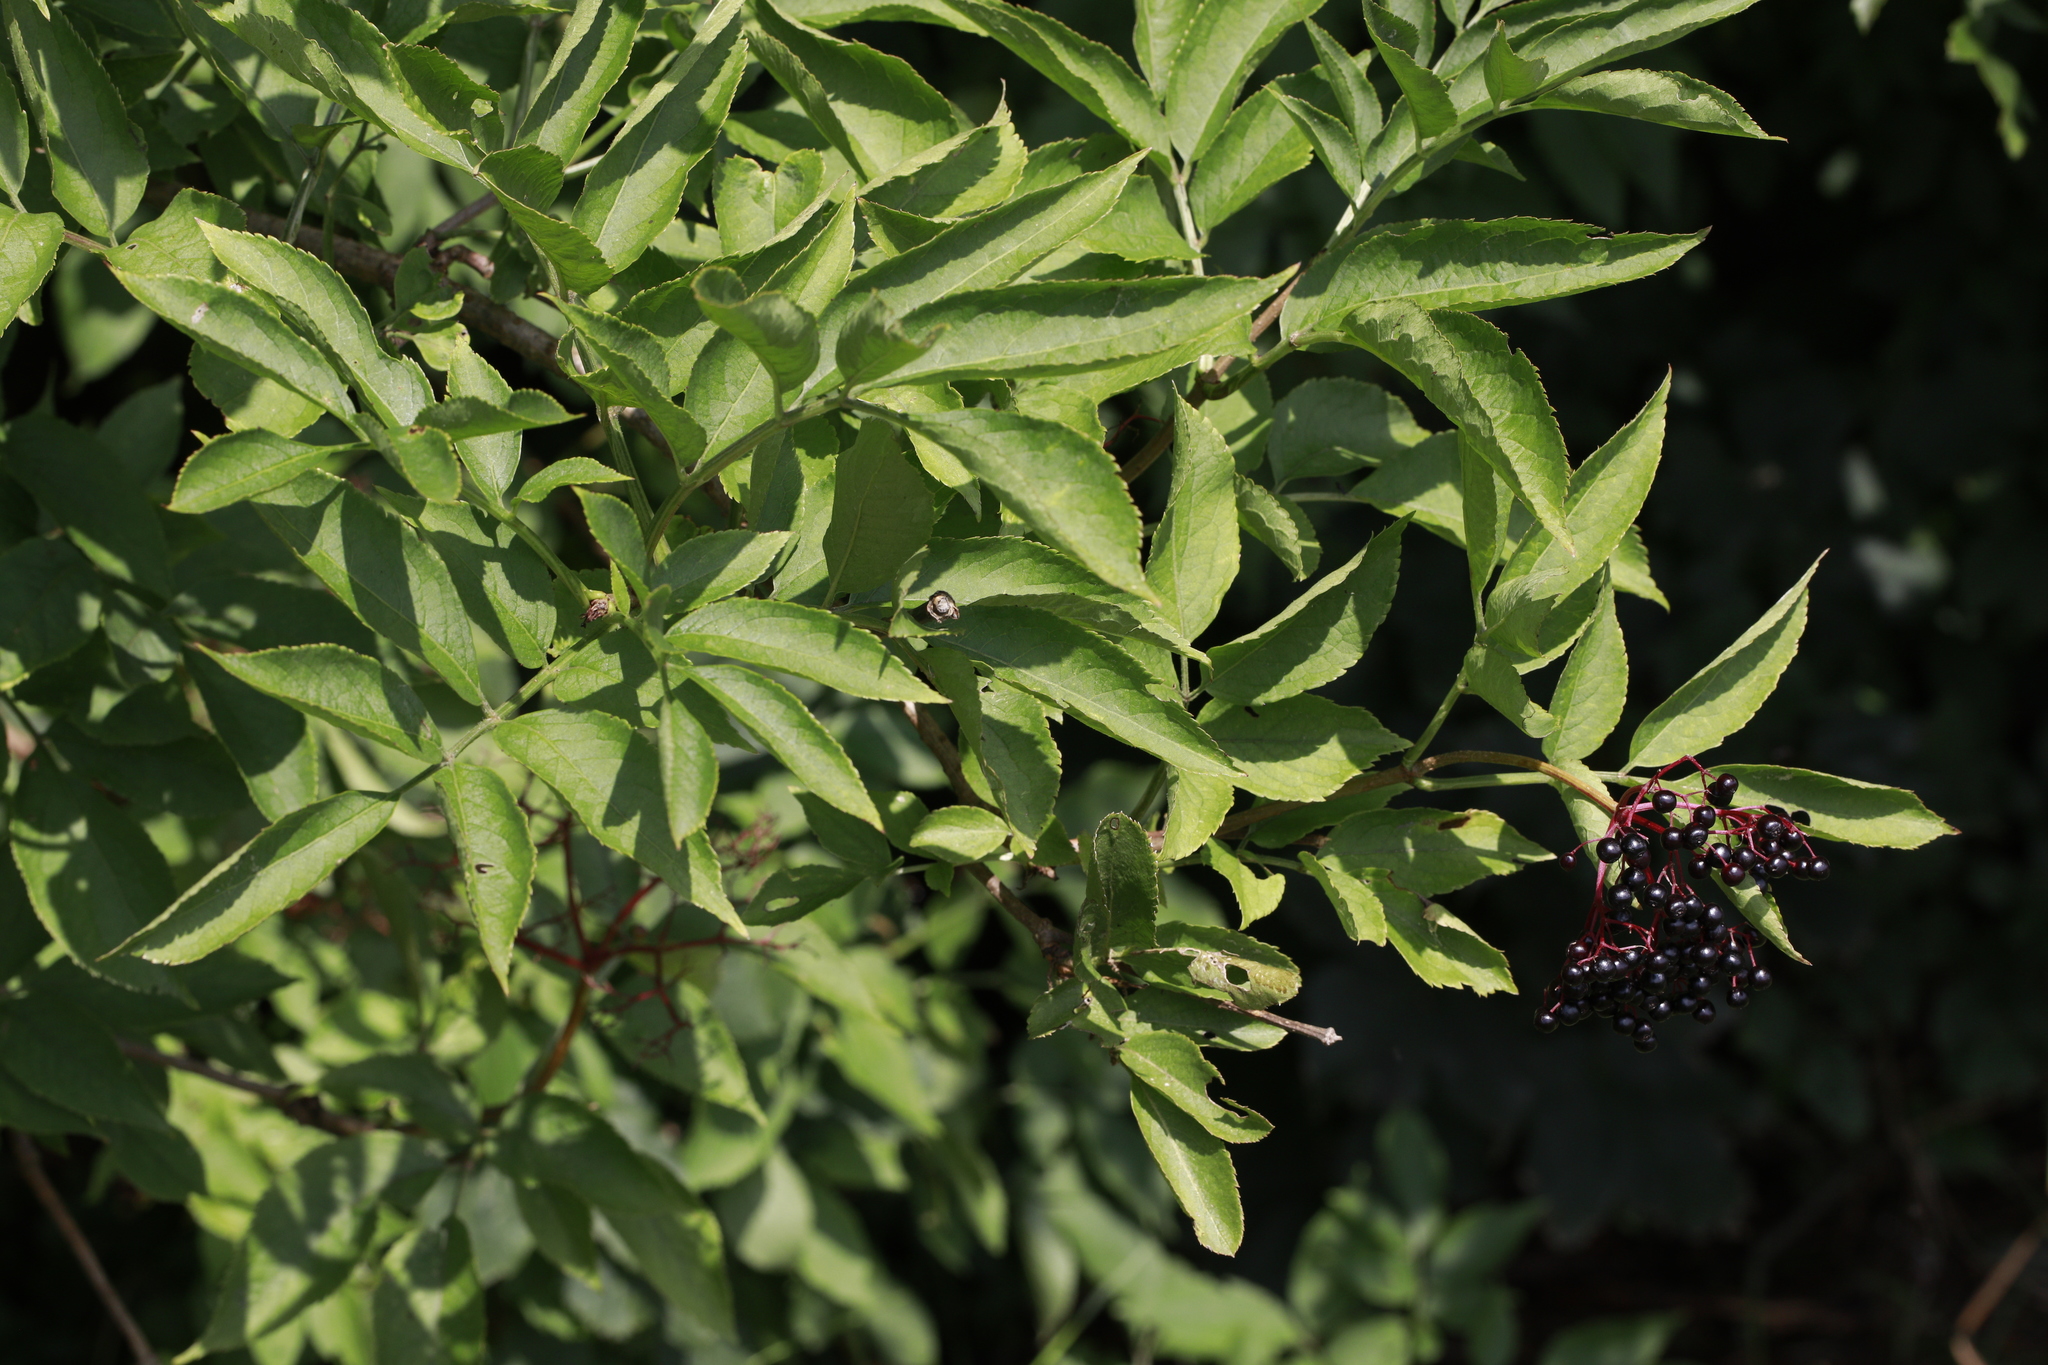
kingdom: Plantae
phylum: Tracheophyta
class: Magnoliopsida
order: Dipsacales
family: Viburnaceae
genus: Sambucus
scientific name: Sambucus nigra
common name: Elder
